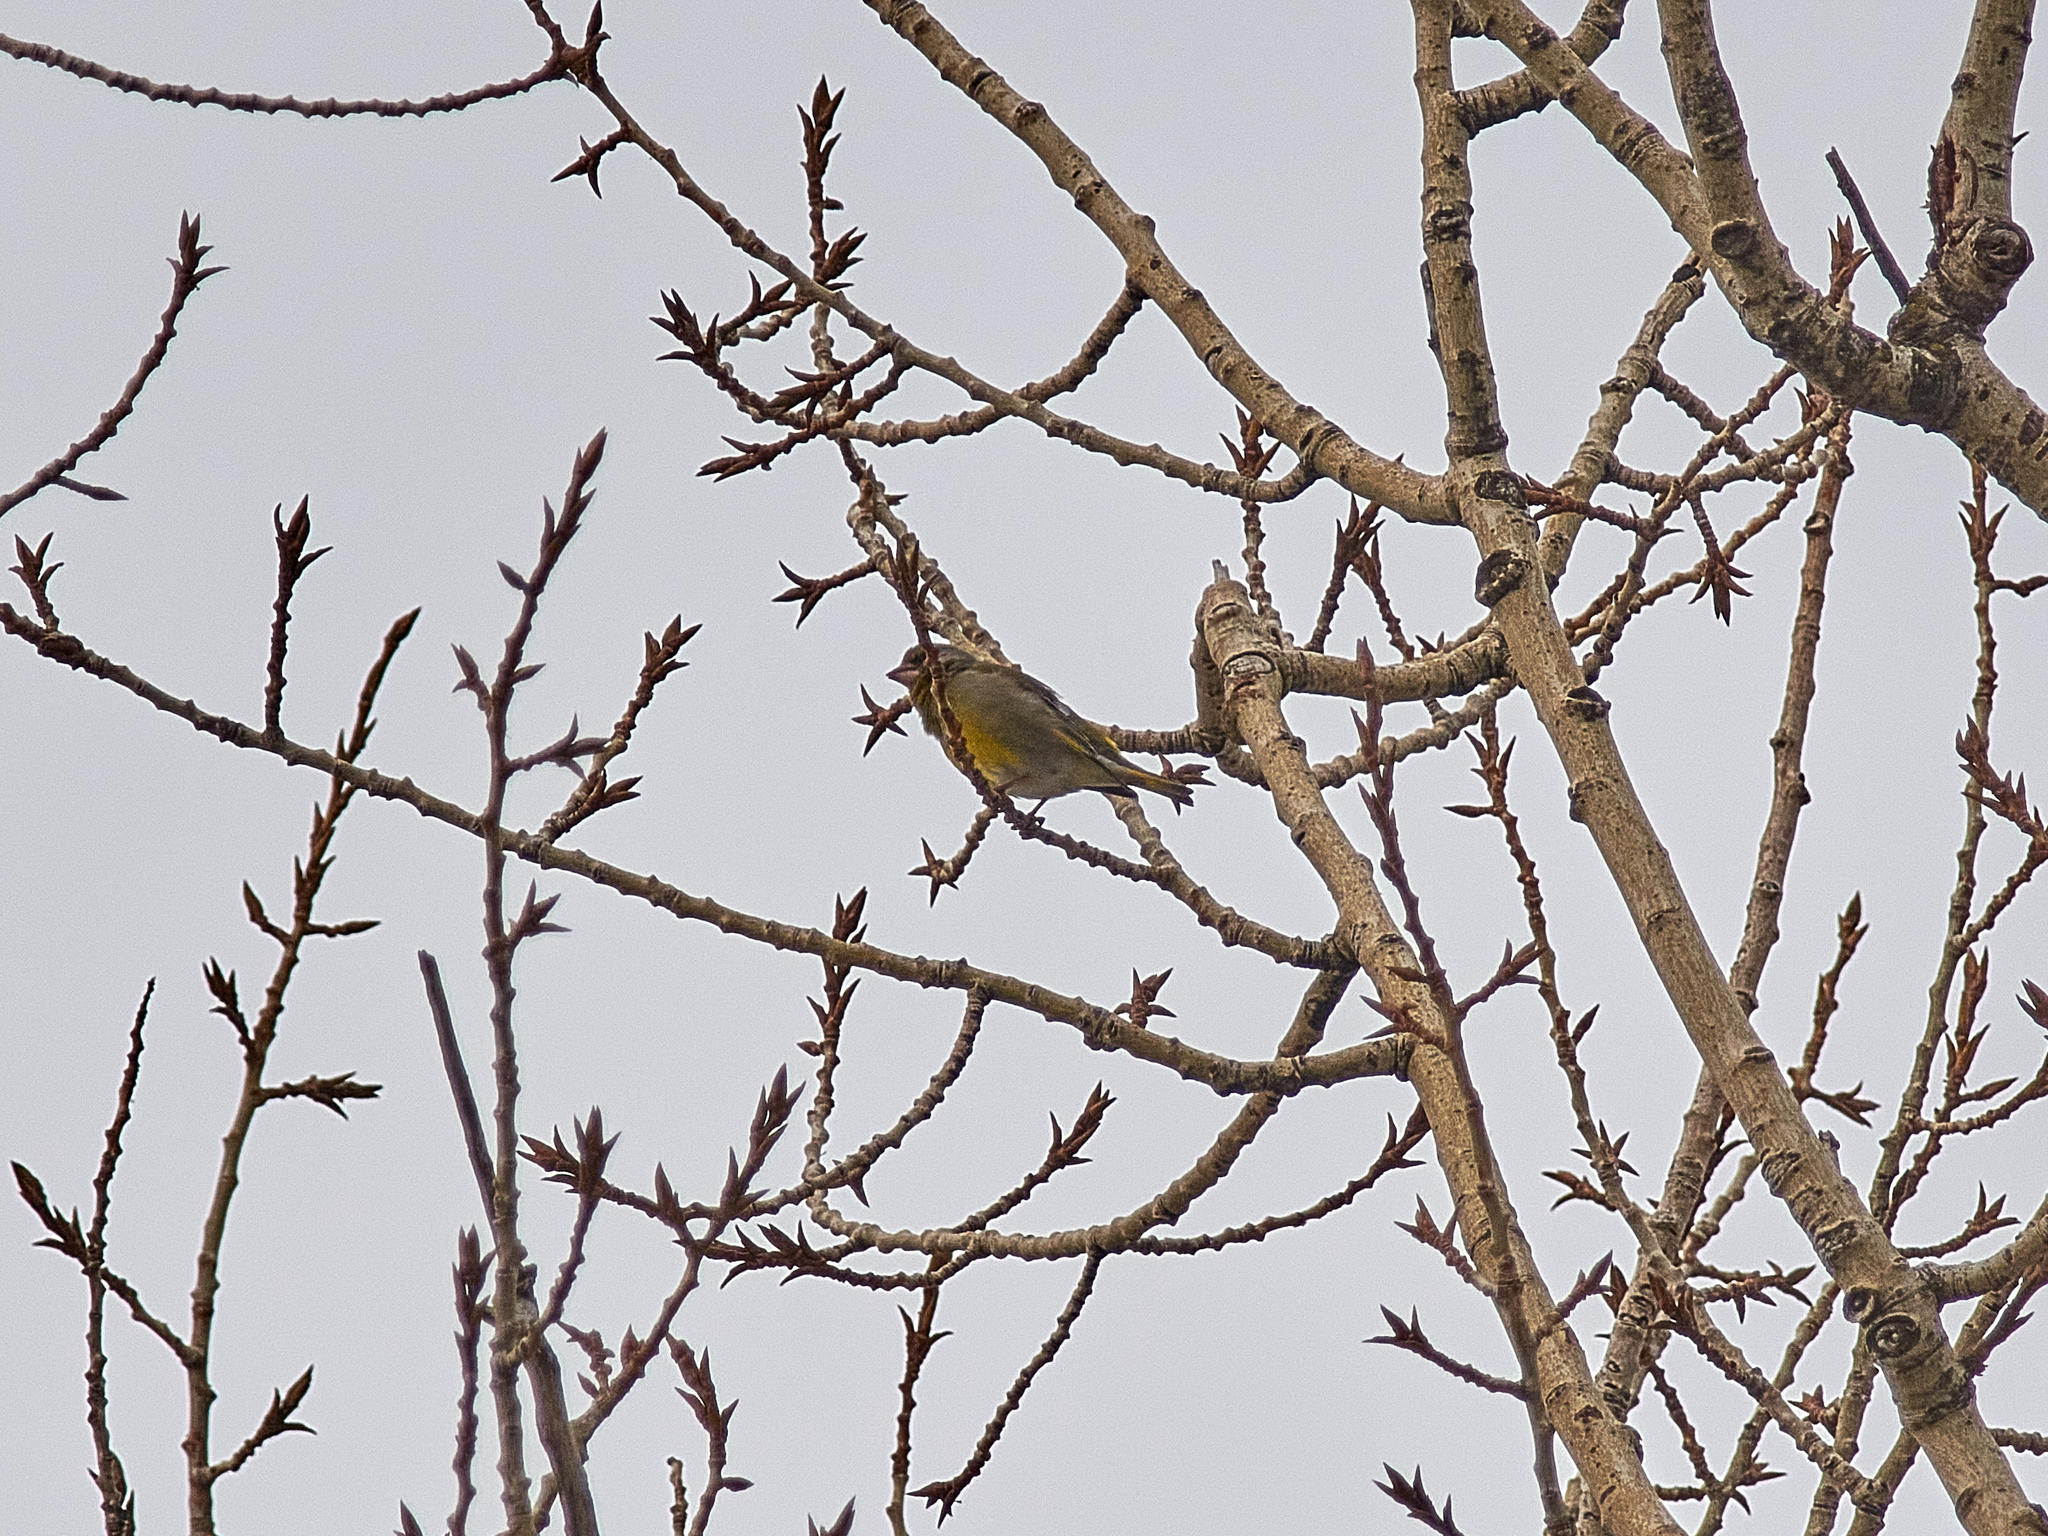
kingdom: Plantae
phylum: Tracheophyta
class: Liliopsida
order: Poales
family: Poaceae
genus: Chloris
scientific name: Chloris chloris
